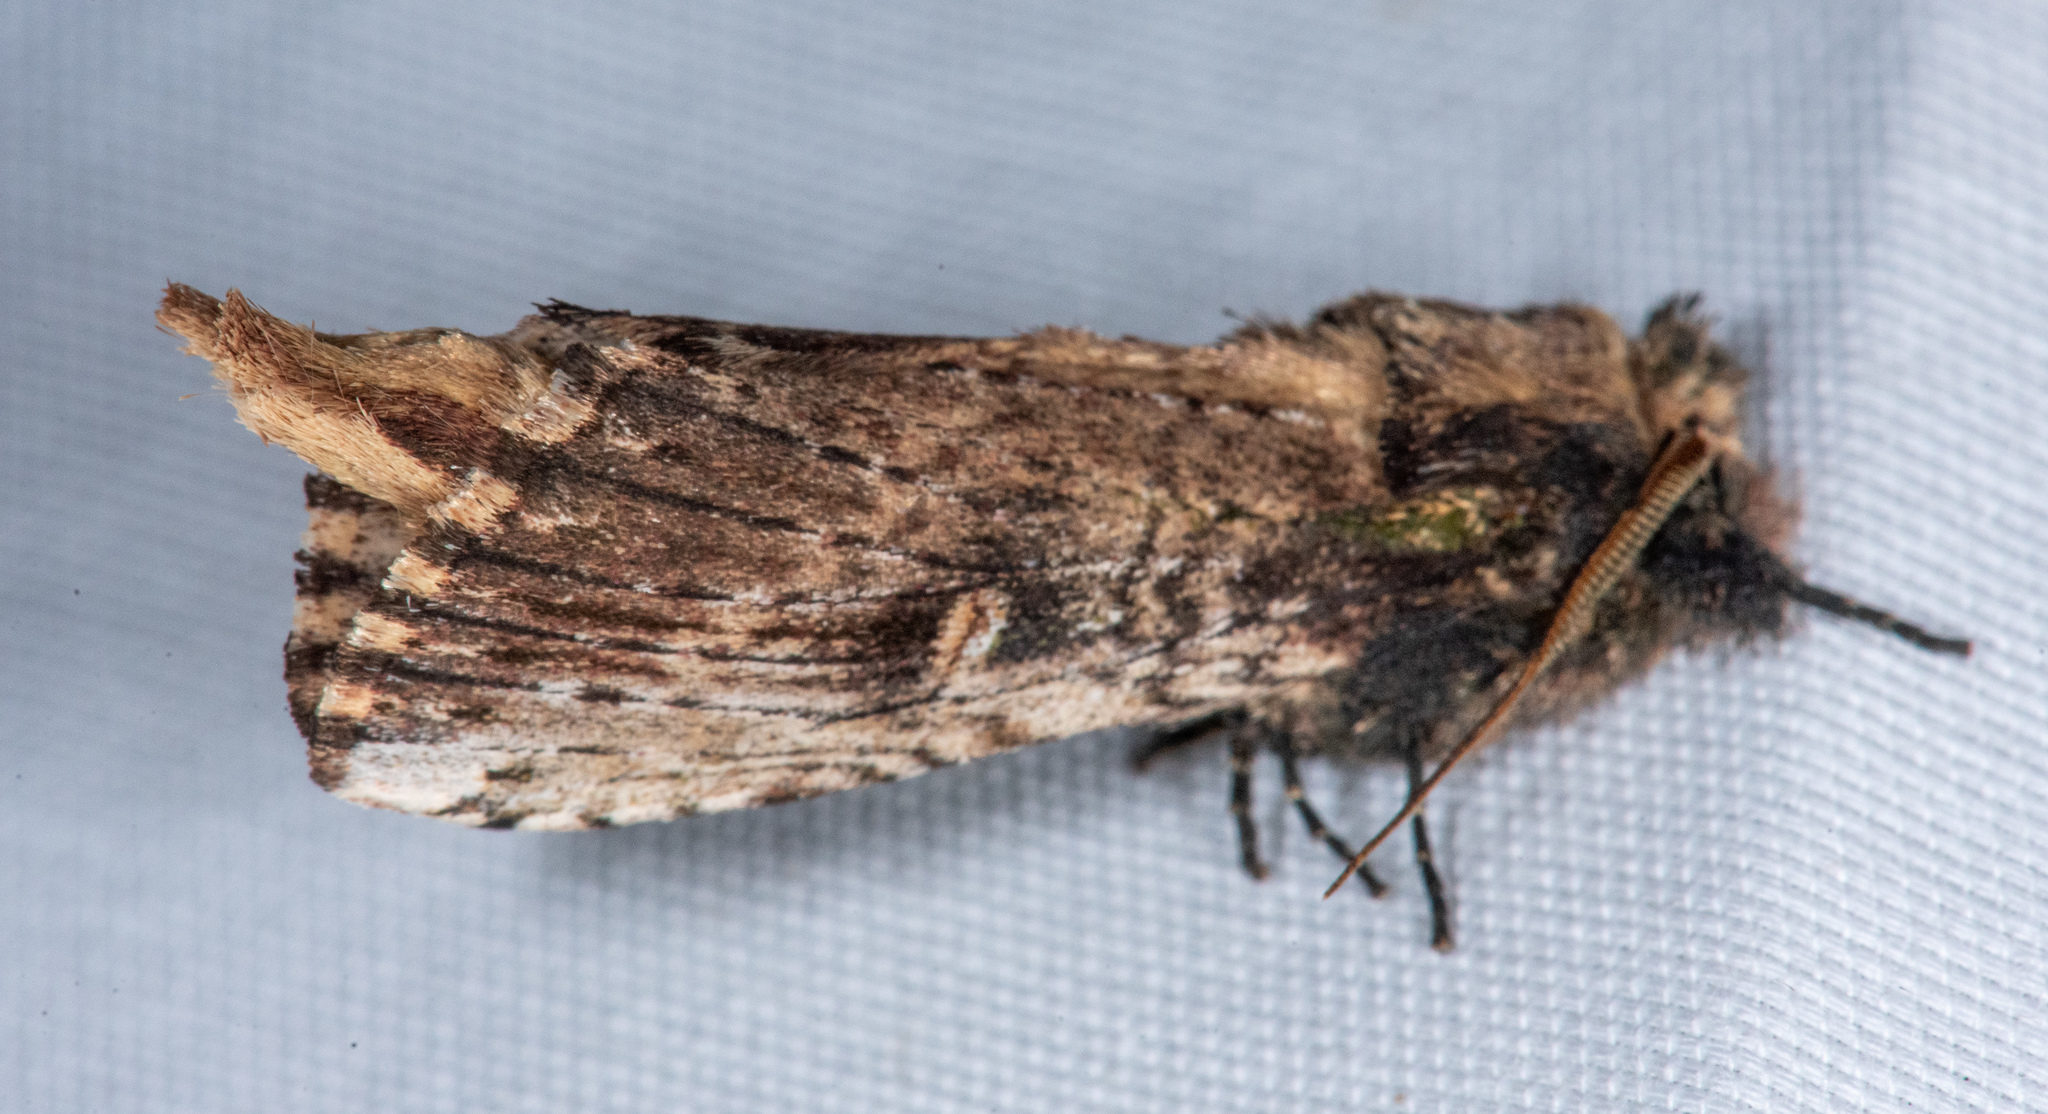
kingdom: Animalia
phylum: Arthropoda
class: Insecta
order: Lepidoptera
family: Notodontidae
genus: Schizura
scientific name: Schizura ipomaeae
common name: Morning-glory prominent
